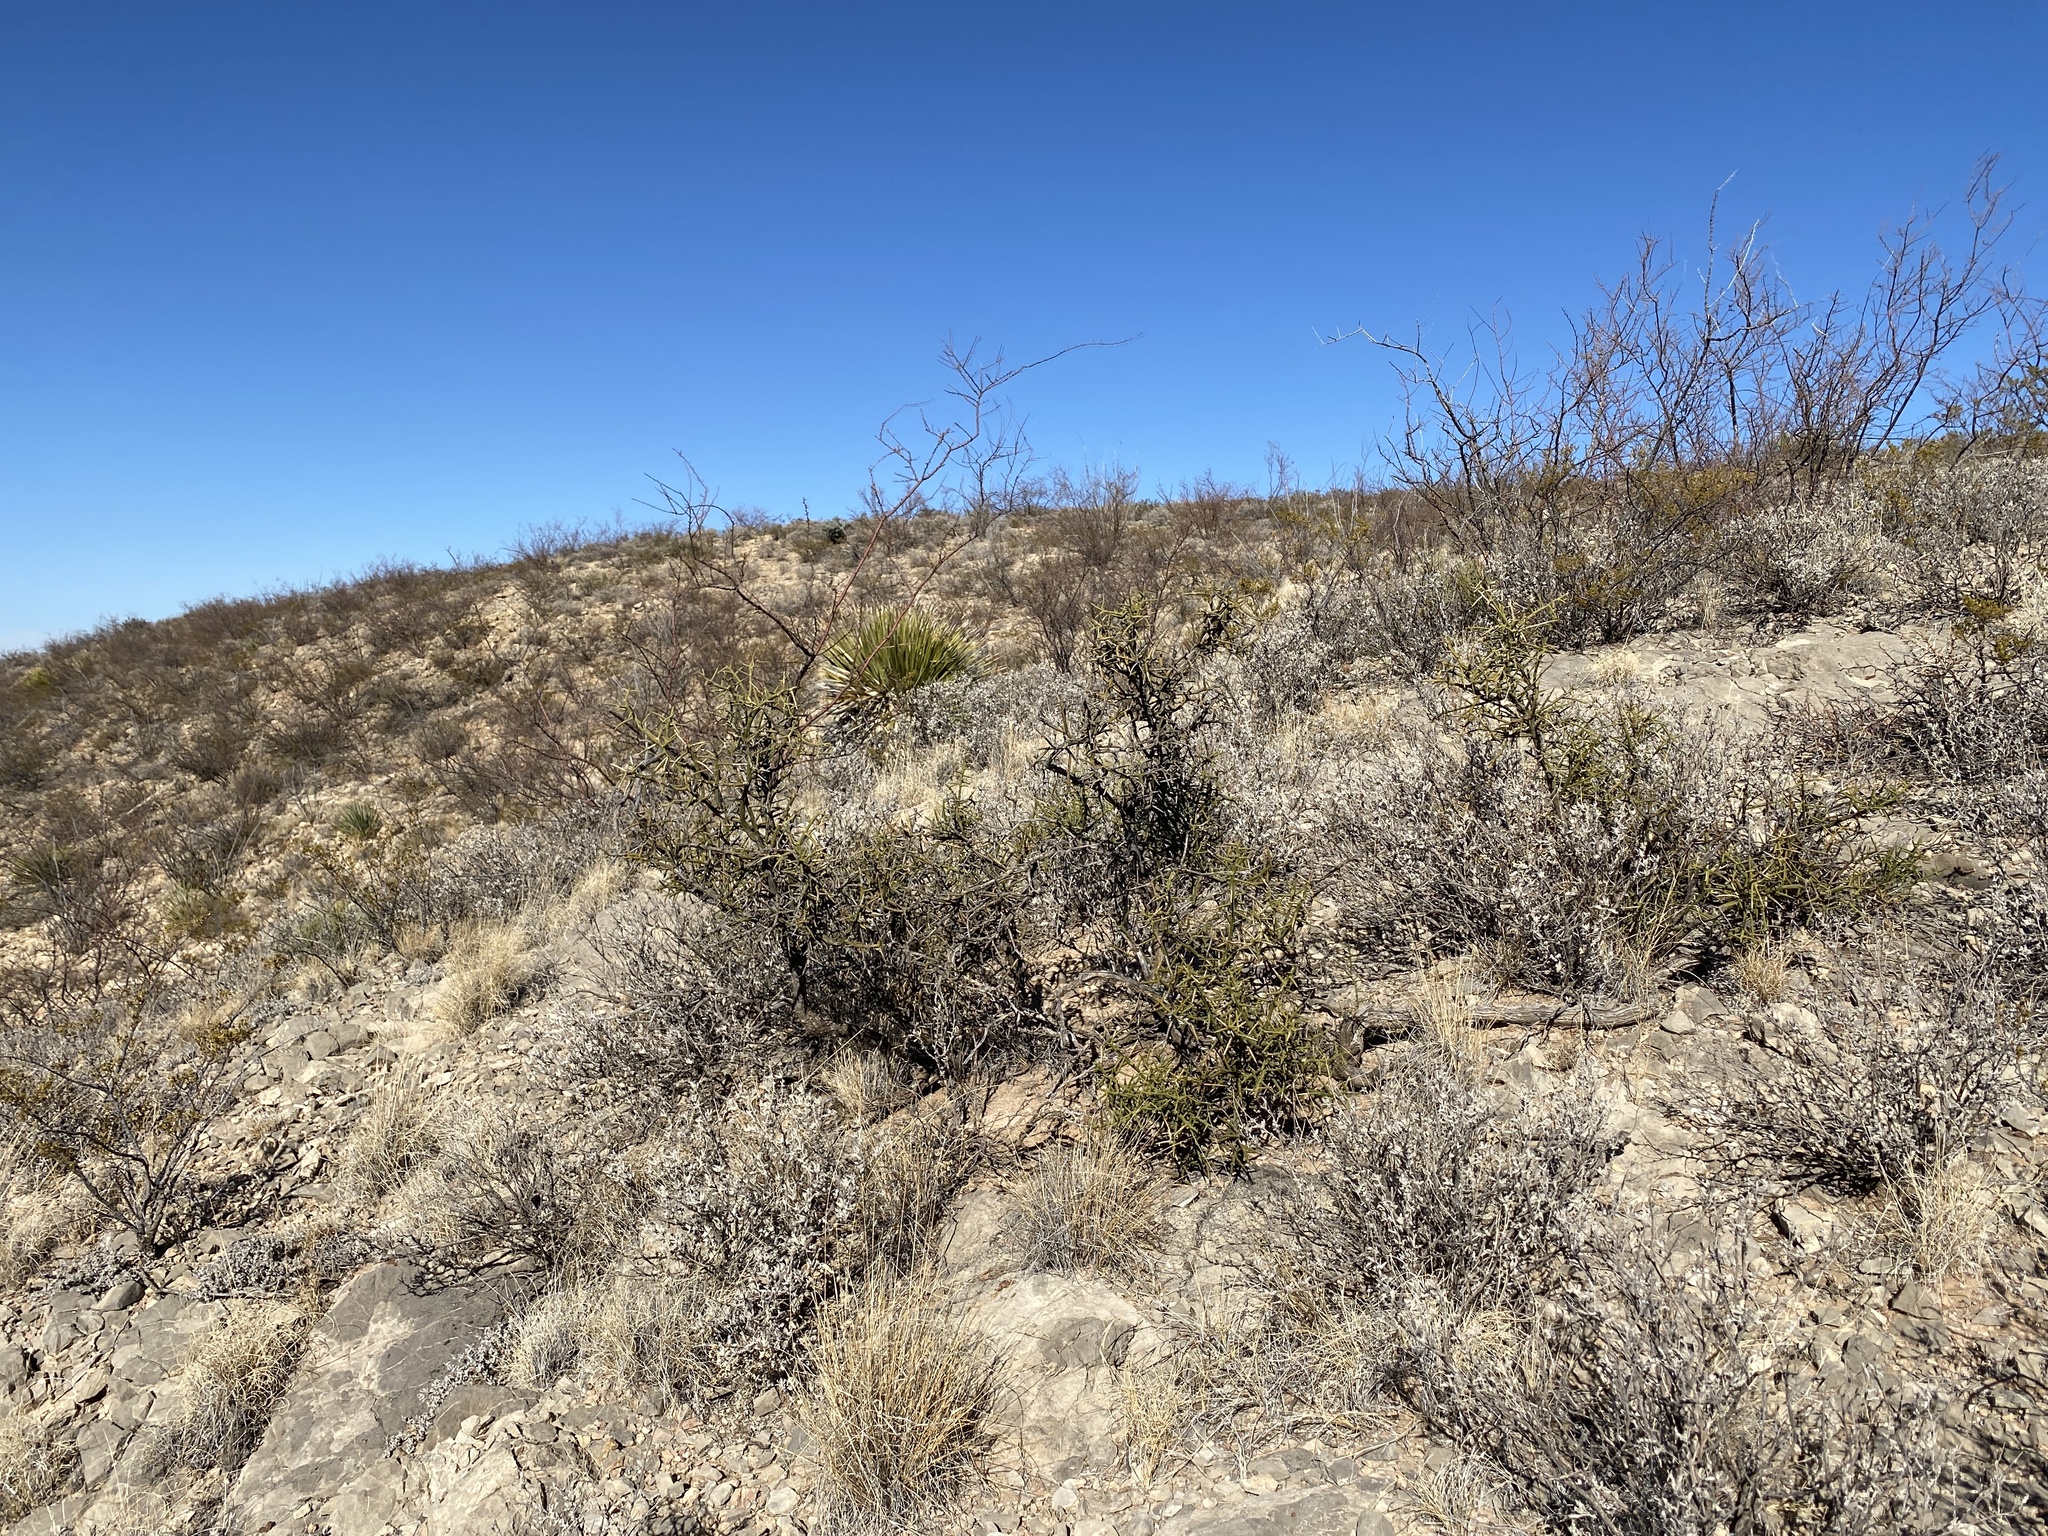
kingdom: Plantae
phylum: Tracheophyta
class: Magnoliopsida
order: Brassicales
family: Koeberliniaceae
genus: Koeberlinia
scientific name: Koeberlinia spinosa
